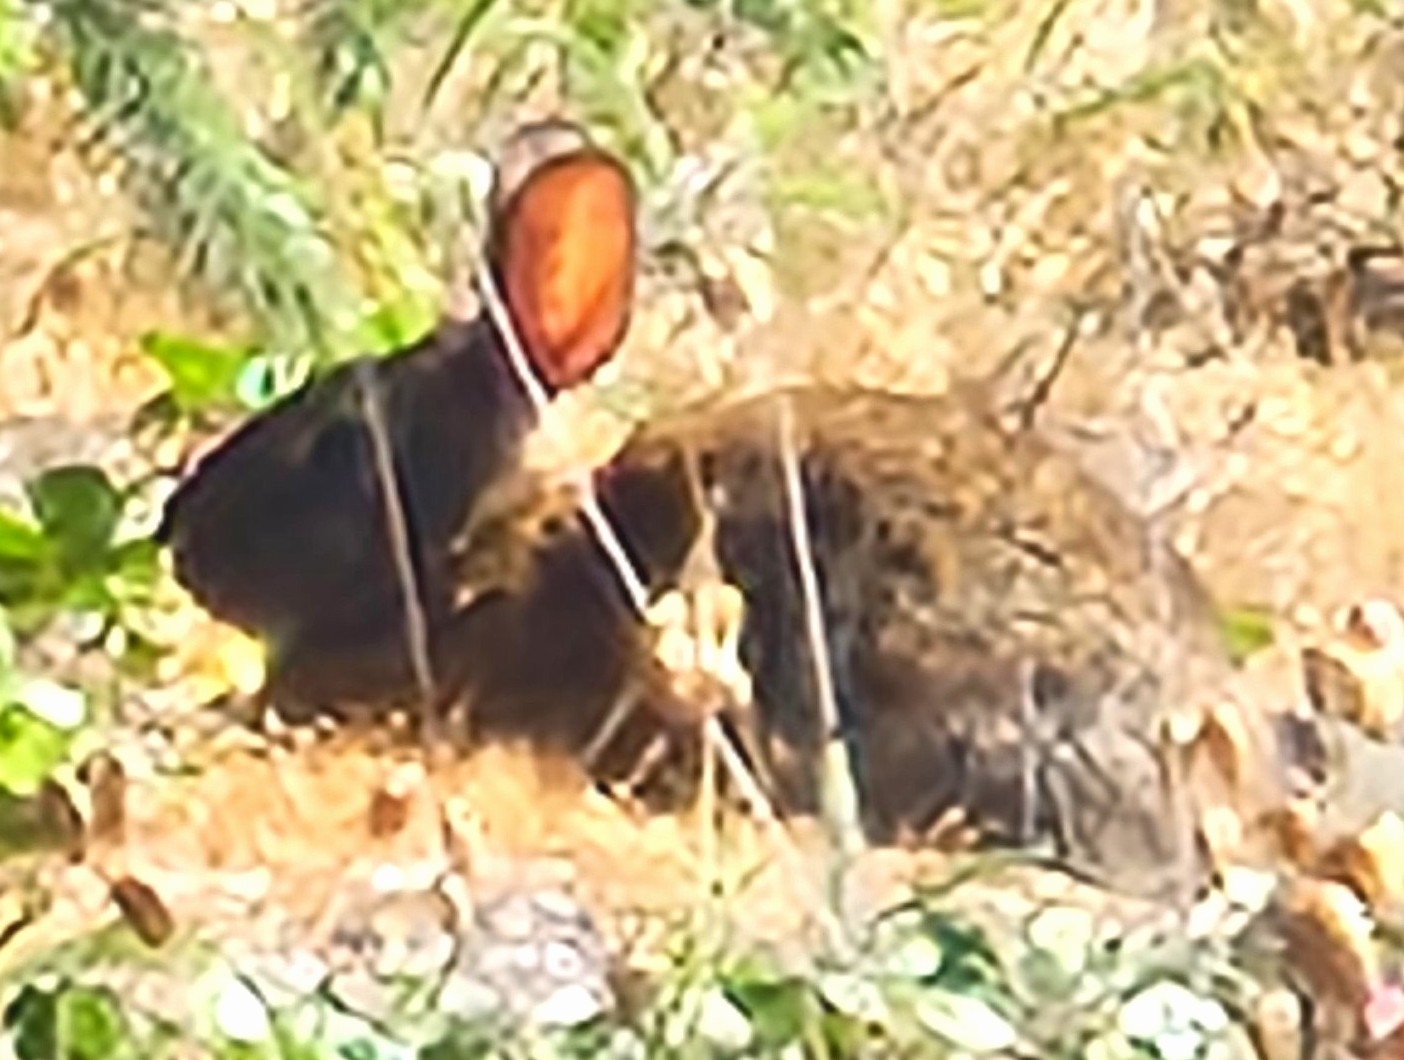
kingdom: Animalia
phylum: Chordata
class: Mammalia
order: Lagomorpha
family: Leporidae
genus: Sylvilagus
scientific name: Sylvilagus bachmani
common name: Brush rabbit
